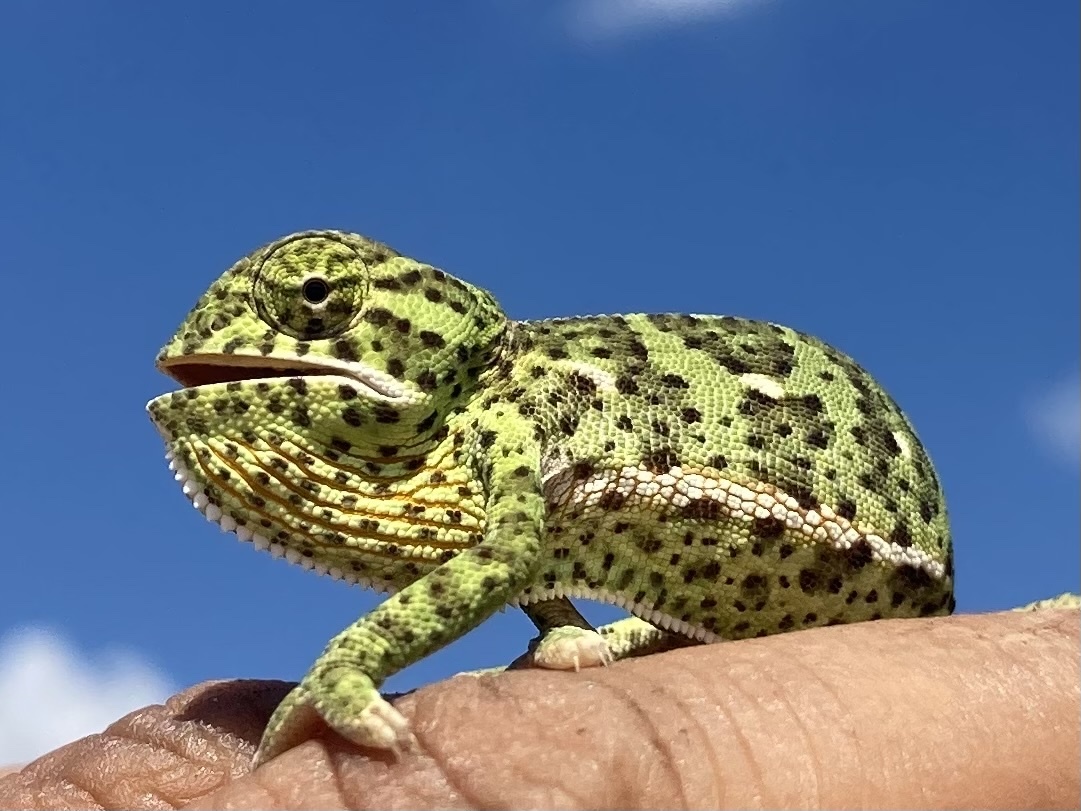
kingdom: Animalia
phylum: Chordata
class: Squamata
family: Chamaeleonidae
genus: Chamaeleo
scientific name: Chamaeleo dilepis
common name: Flapneck chameleon
